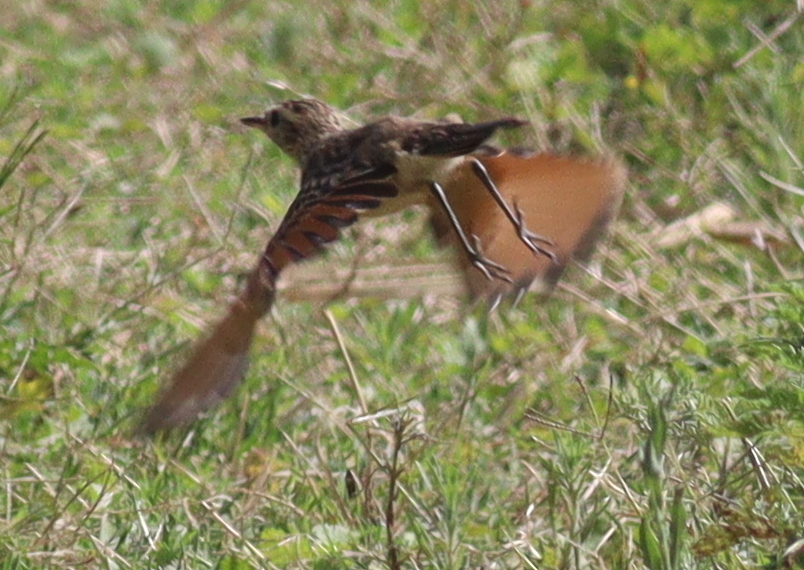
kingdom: Animalia
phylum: Chordata
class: Aves
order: Passeriformes
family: Tyrannidae
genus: Hymenops
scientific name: Hymenops perspicillatus
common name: Spectacled tyrant
